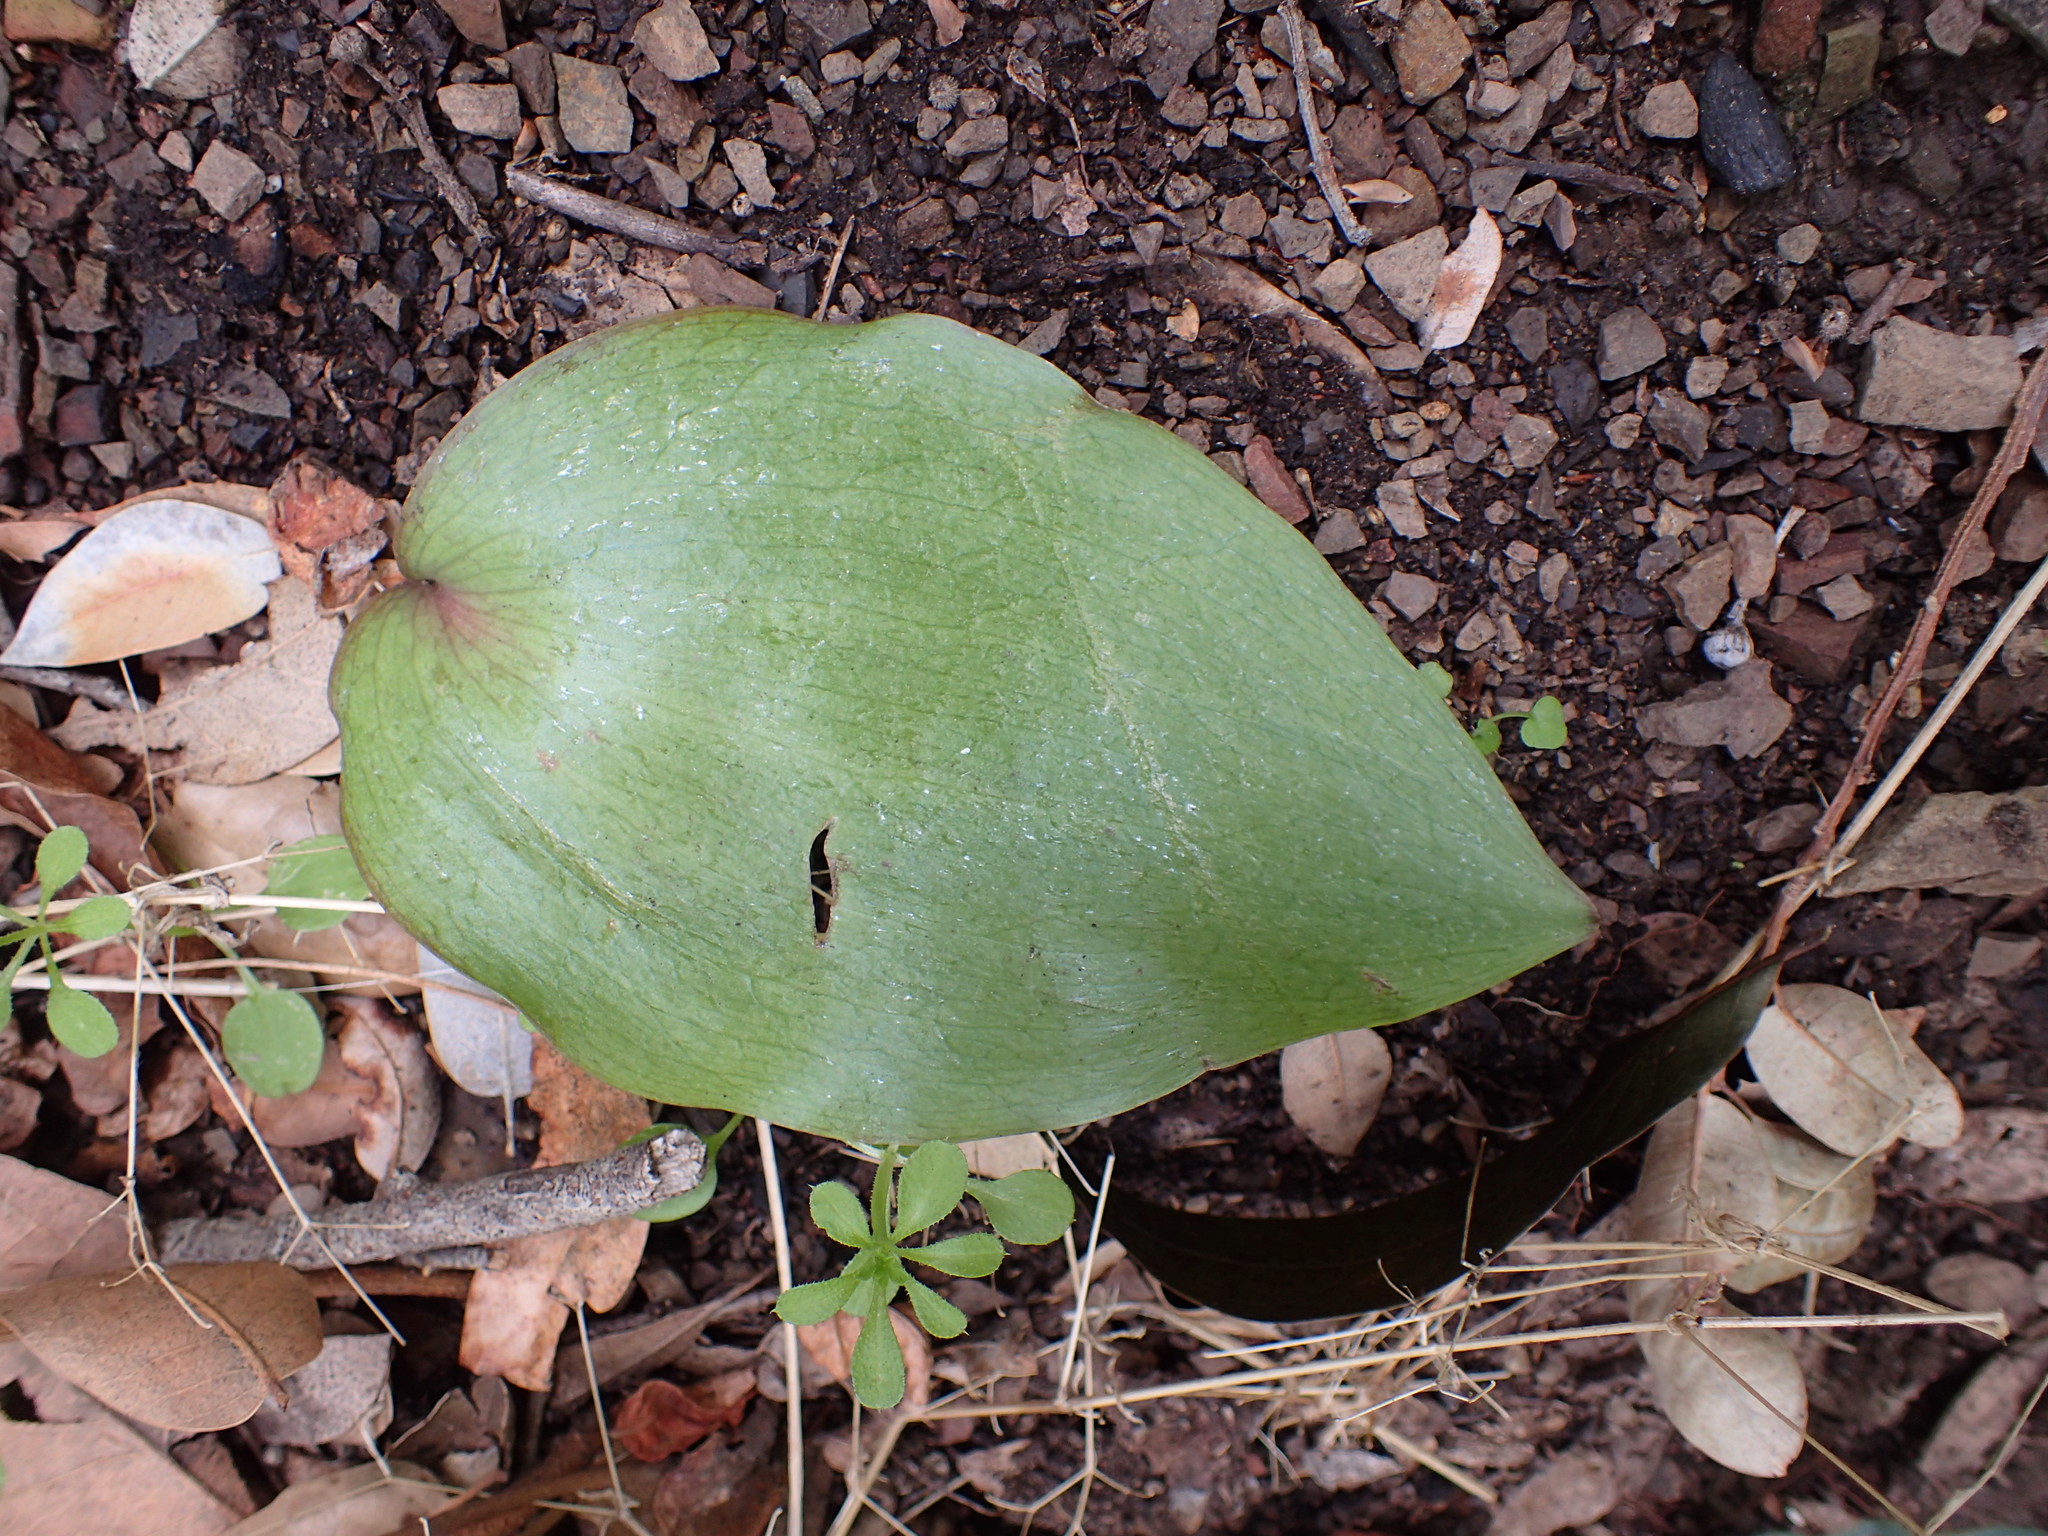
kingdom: Plantae
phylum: Tracheophyta
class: Liliopsida
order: Liliales
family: Liliaceae
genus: Fritillaria
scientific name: Fritillaria ojaiensis
